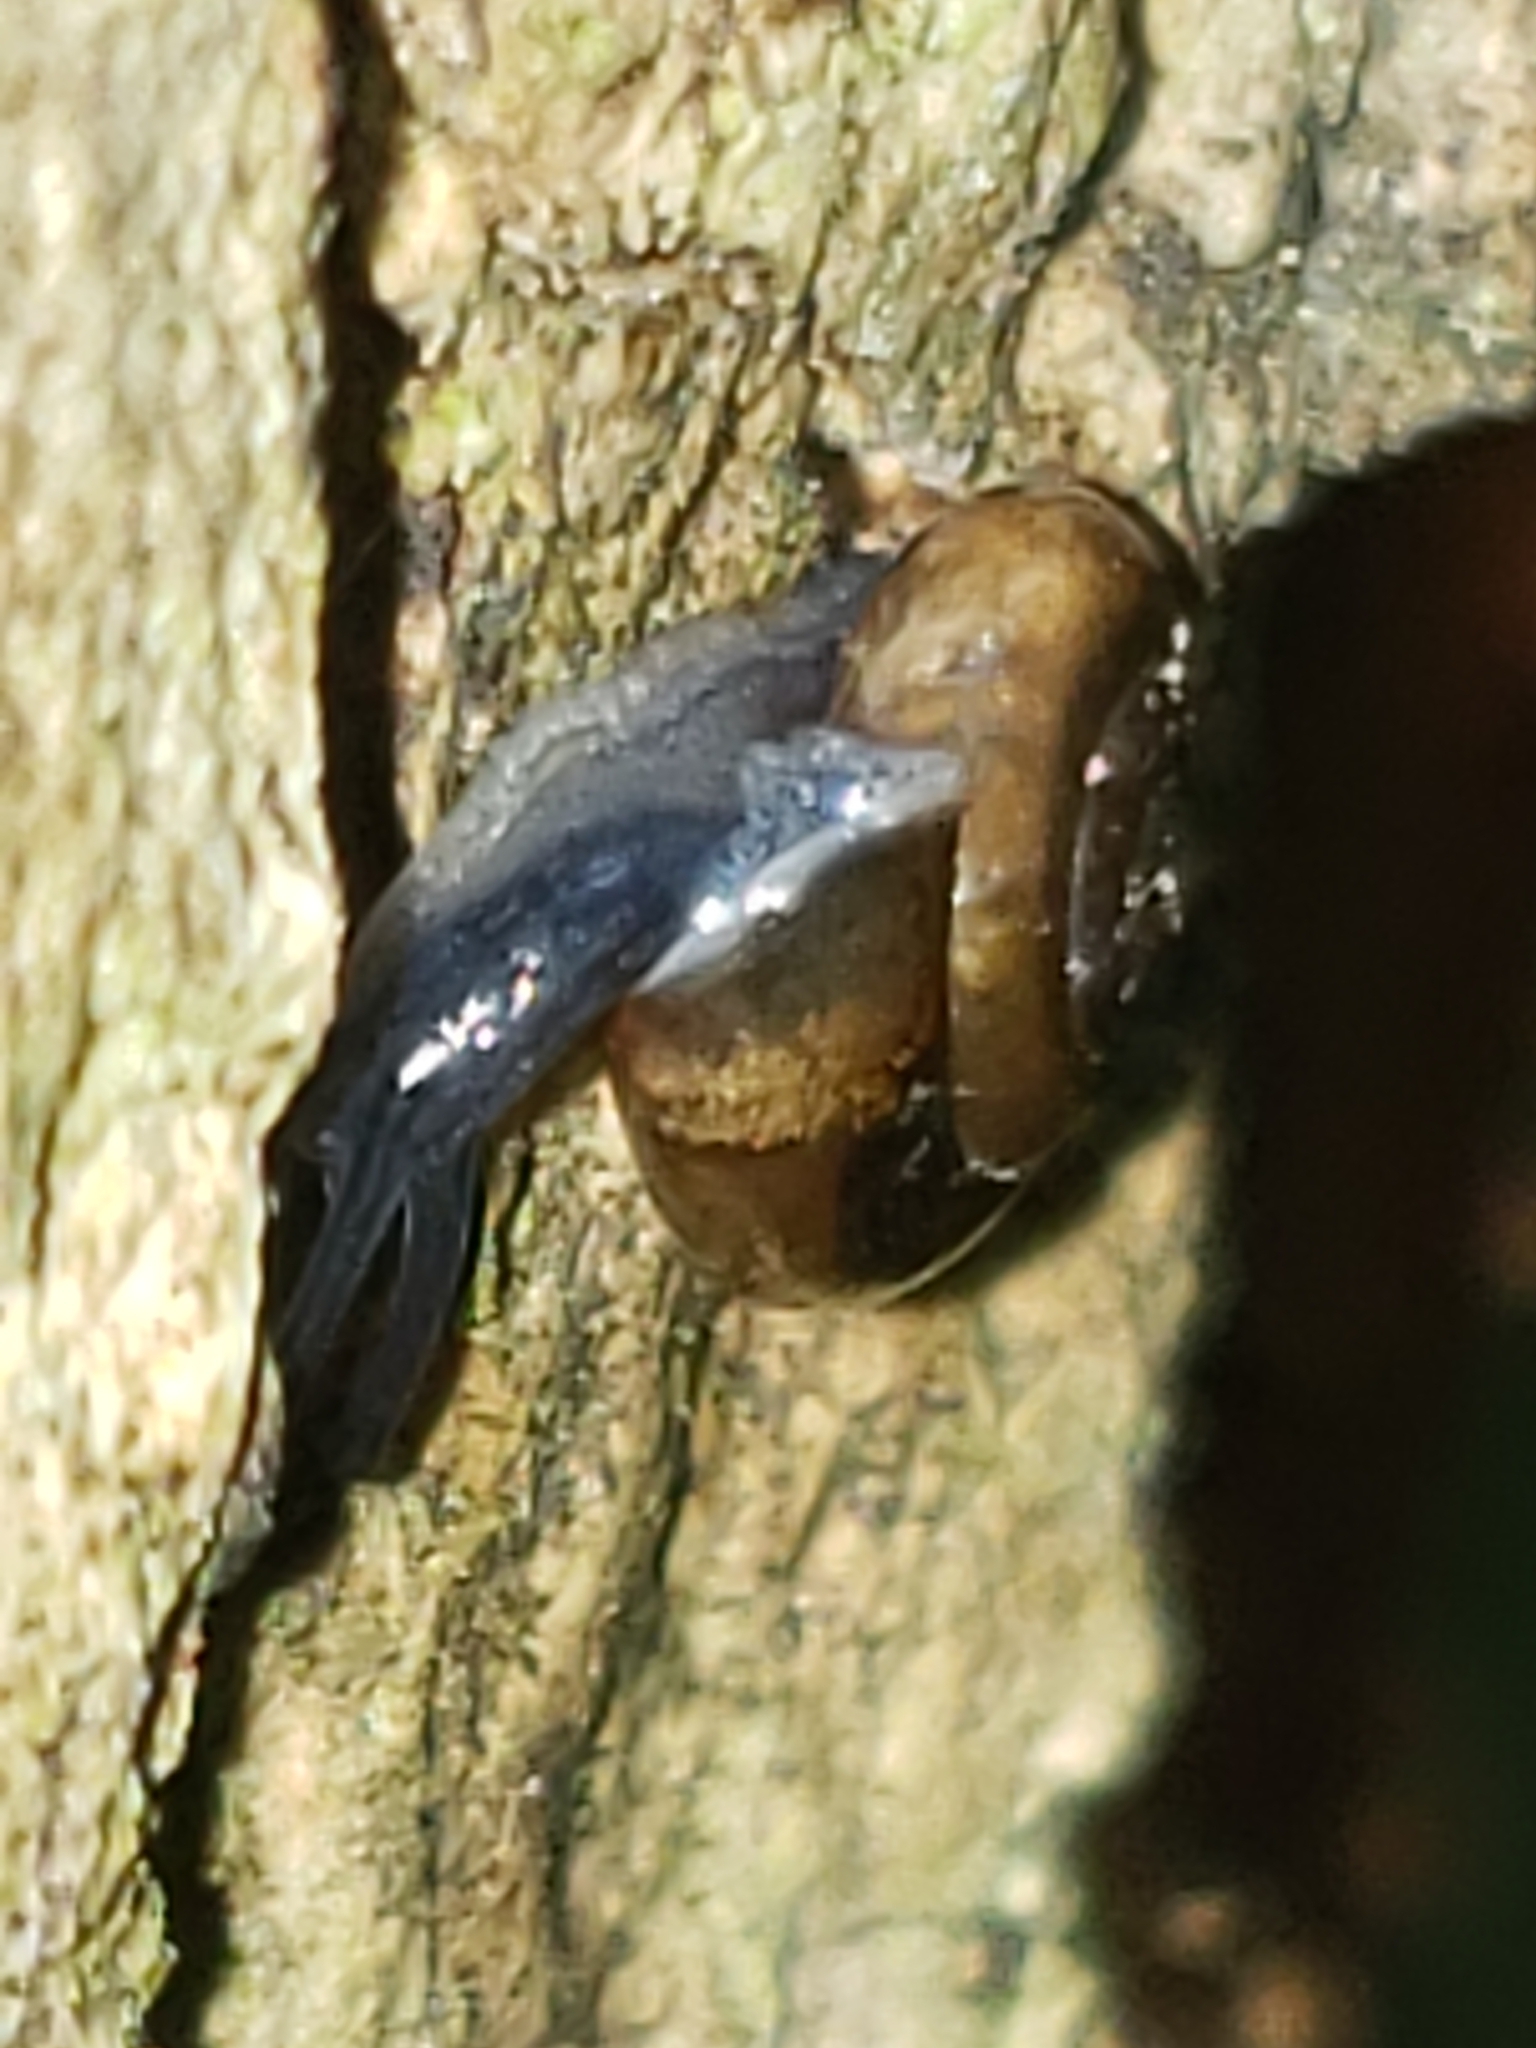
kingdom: Animalia
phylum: Mollusca
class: Gastropoda
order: Stylommatophora
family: Gastrodontidae
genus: Zonitoides
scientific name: Zonitoides arboreus
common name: Quick gloss
